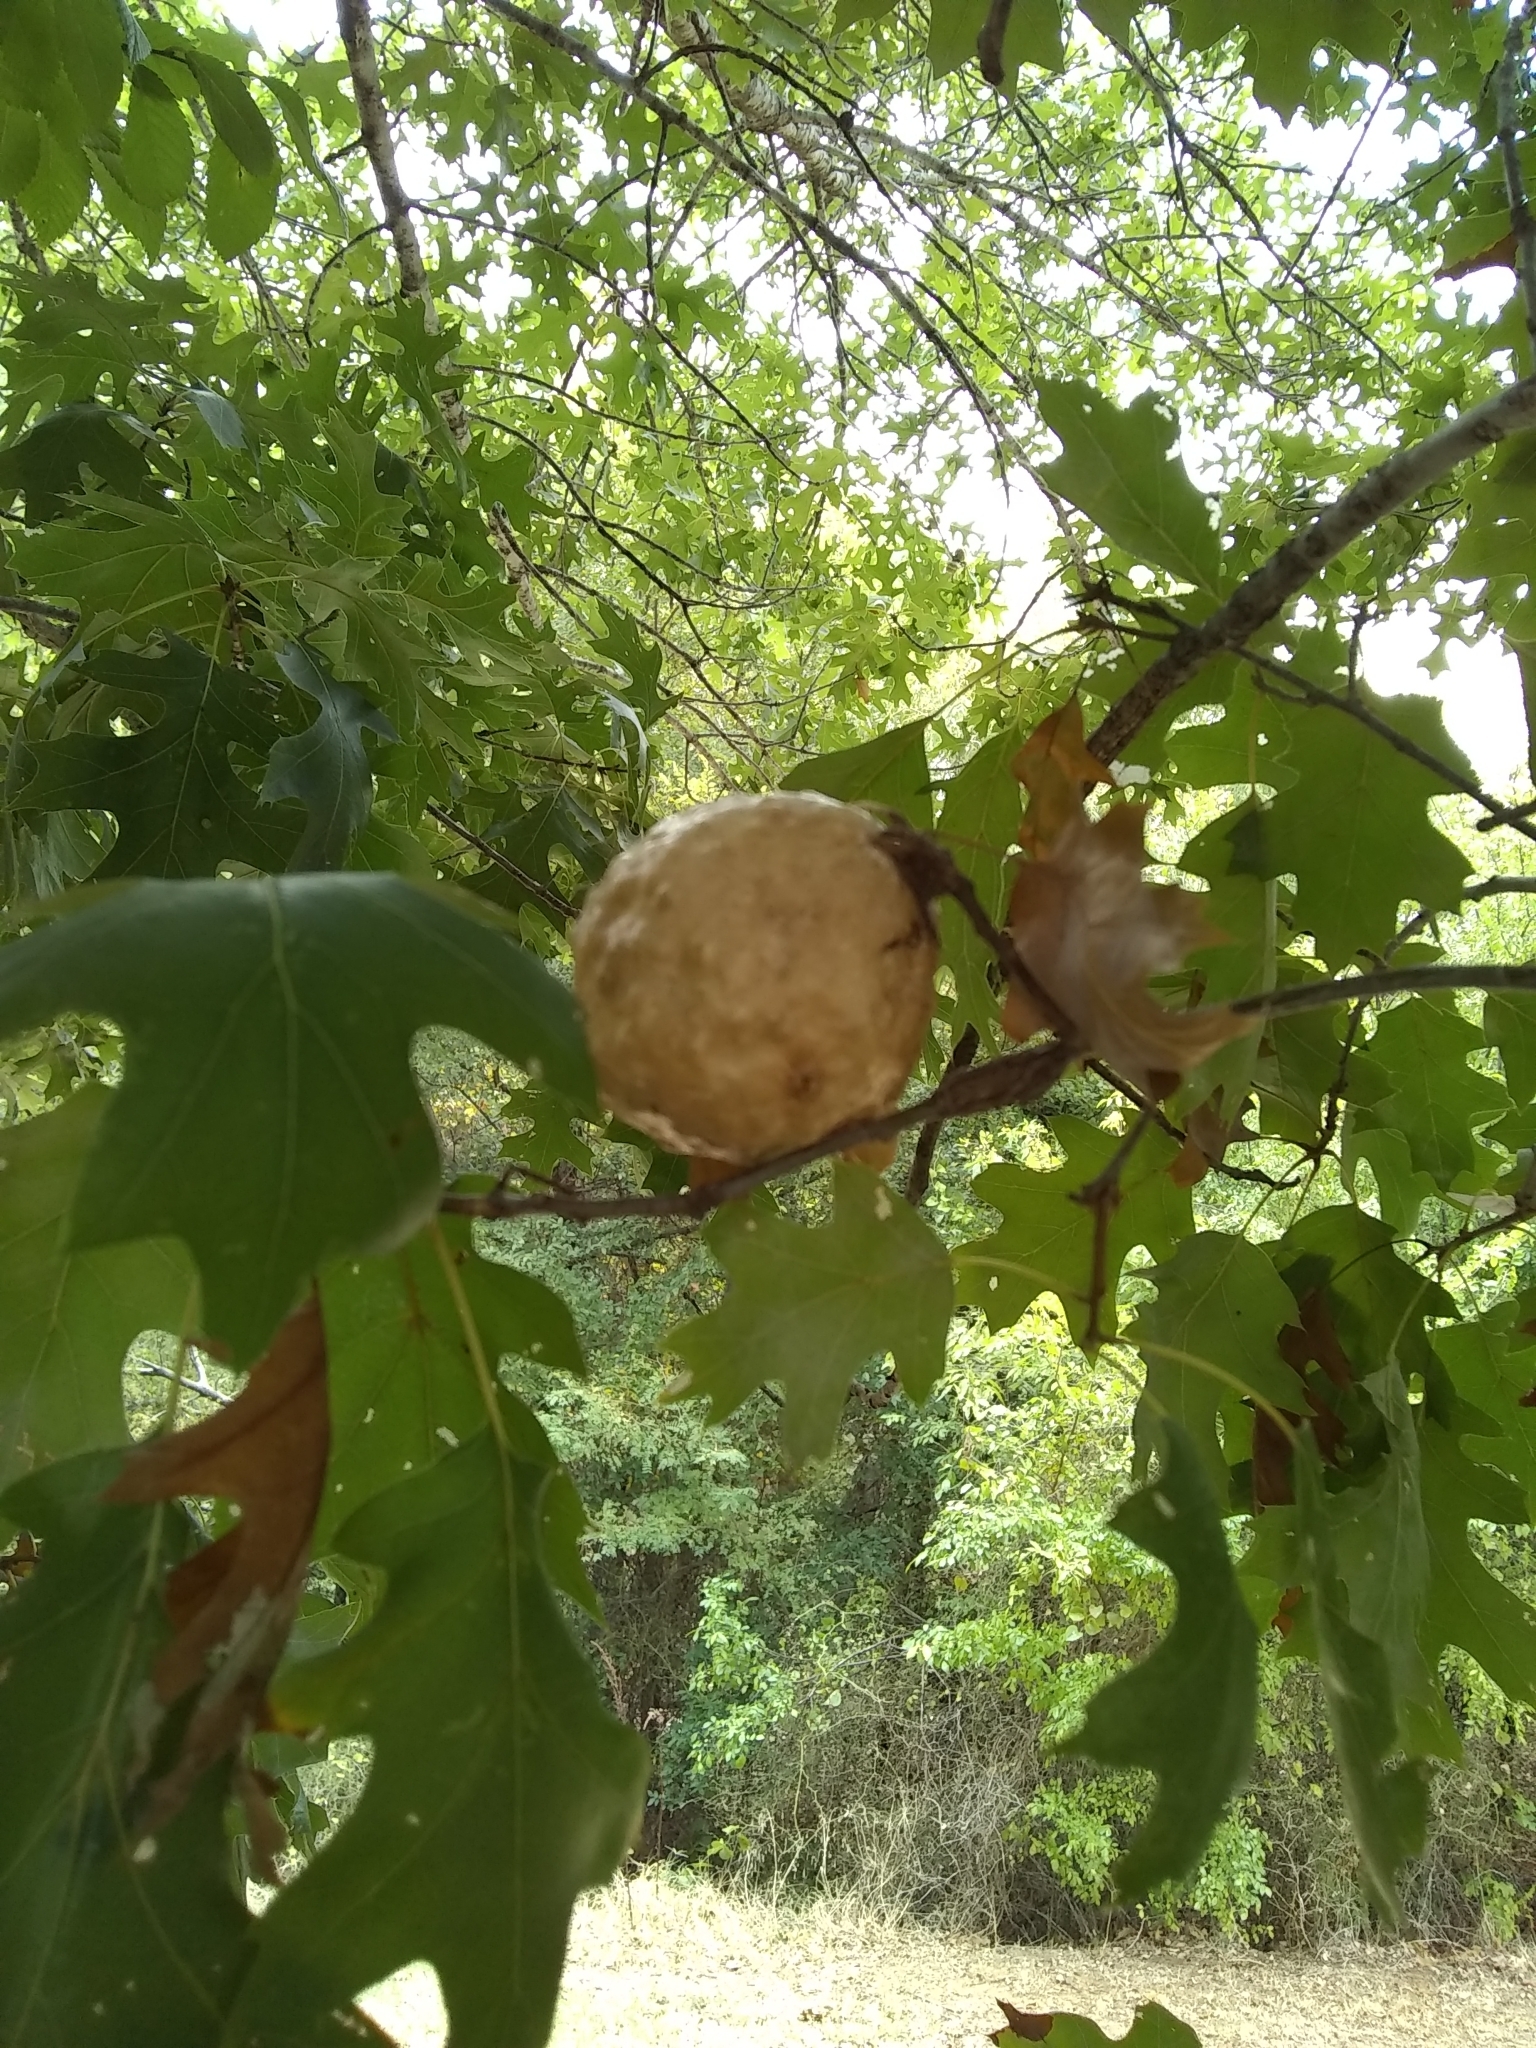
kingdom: Animalia
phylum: Arthropoda
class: Insecta
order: Hymenoptera
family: Cynipidae
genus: Amphibolips
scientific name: Amphibolips
